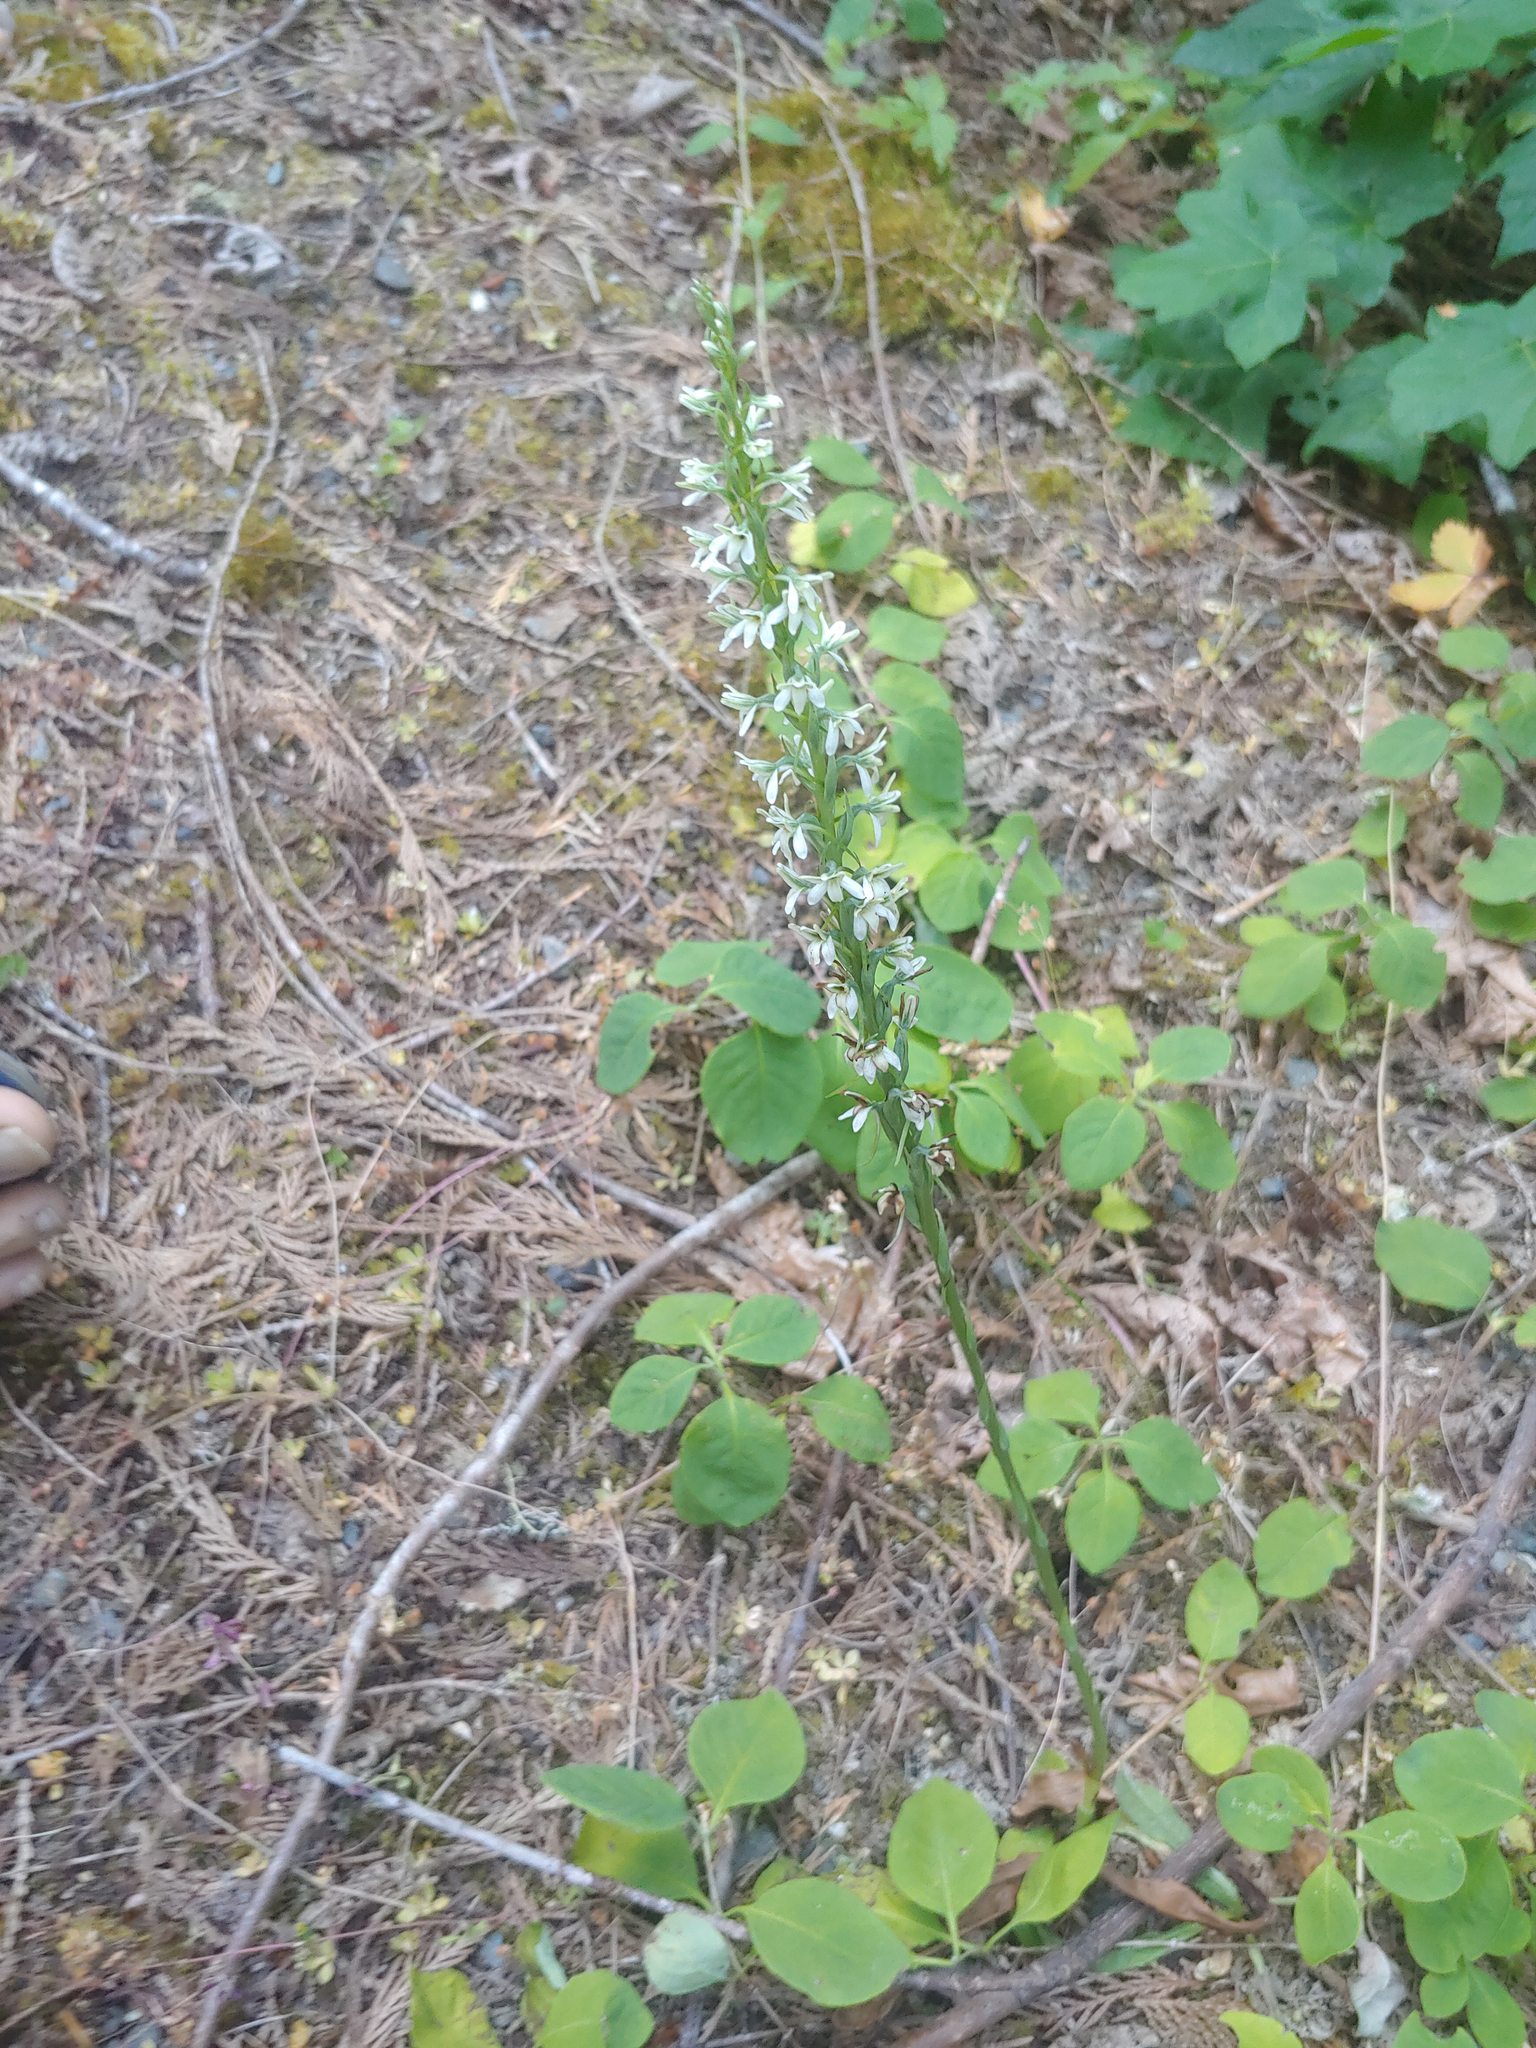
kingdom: Plantae
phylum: Tracheophyta
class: Liliopsida
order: Asparagales
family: Orchidaceae
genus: Platanthera
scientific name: Platanthera elegans
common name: Coast piperia
